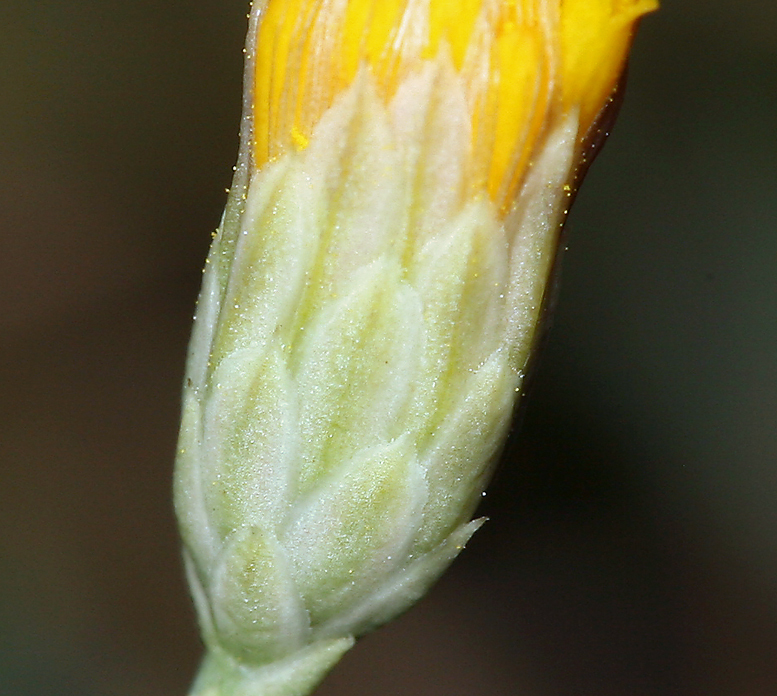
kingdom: Plantae
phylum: Tracheophyta
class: Magnoliopsida
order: Asterales
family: Asteraceae
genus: Leucosyris
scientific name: Leucosyris carnosa
